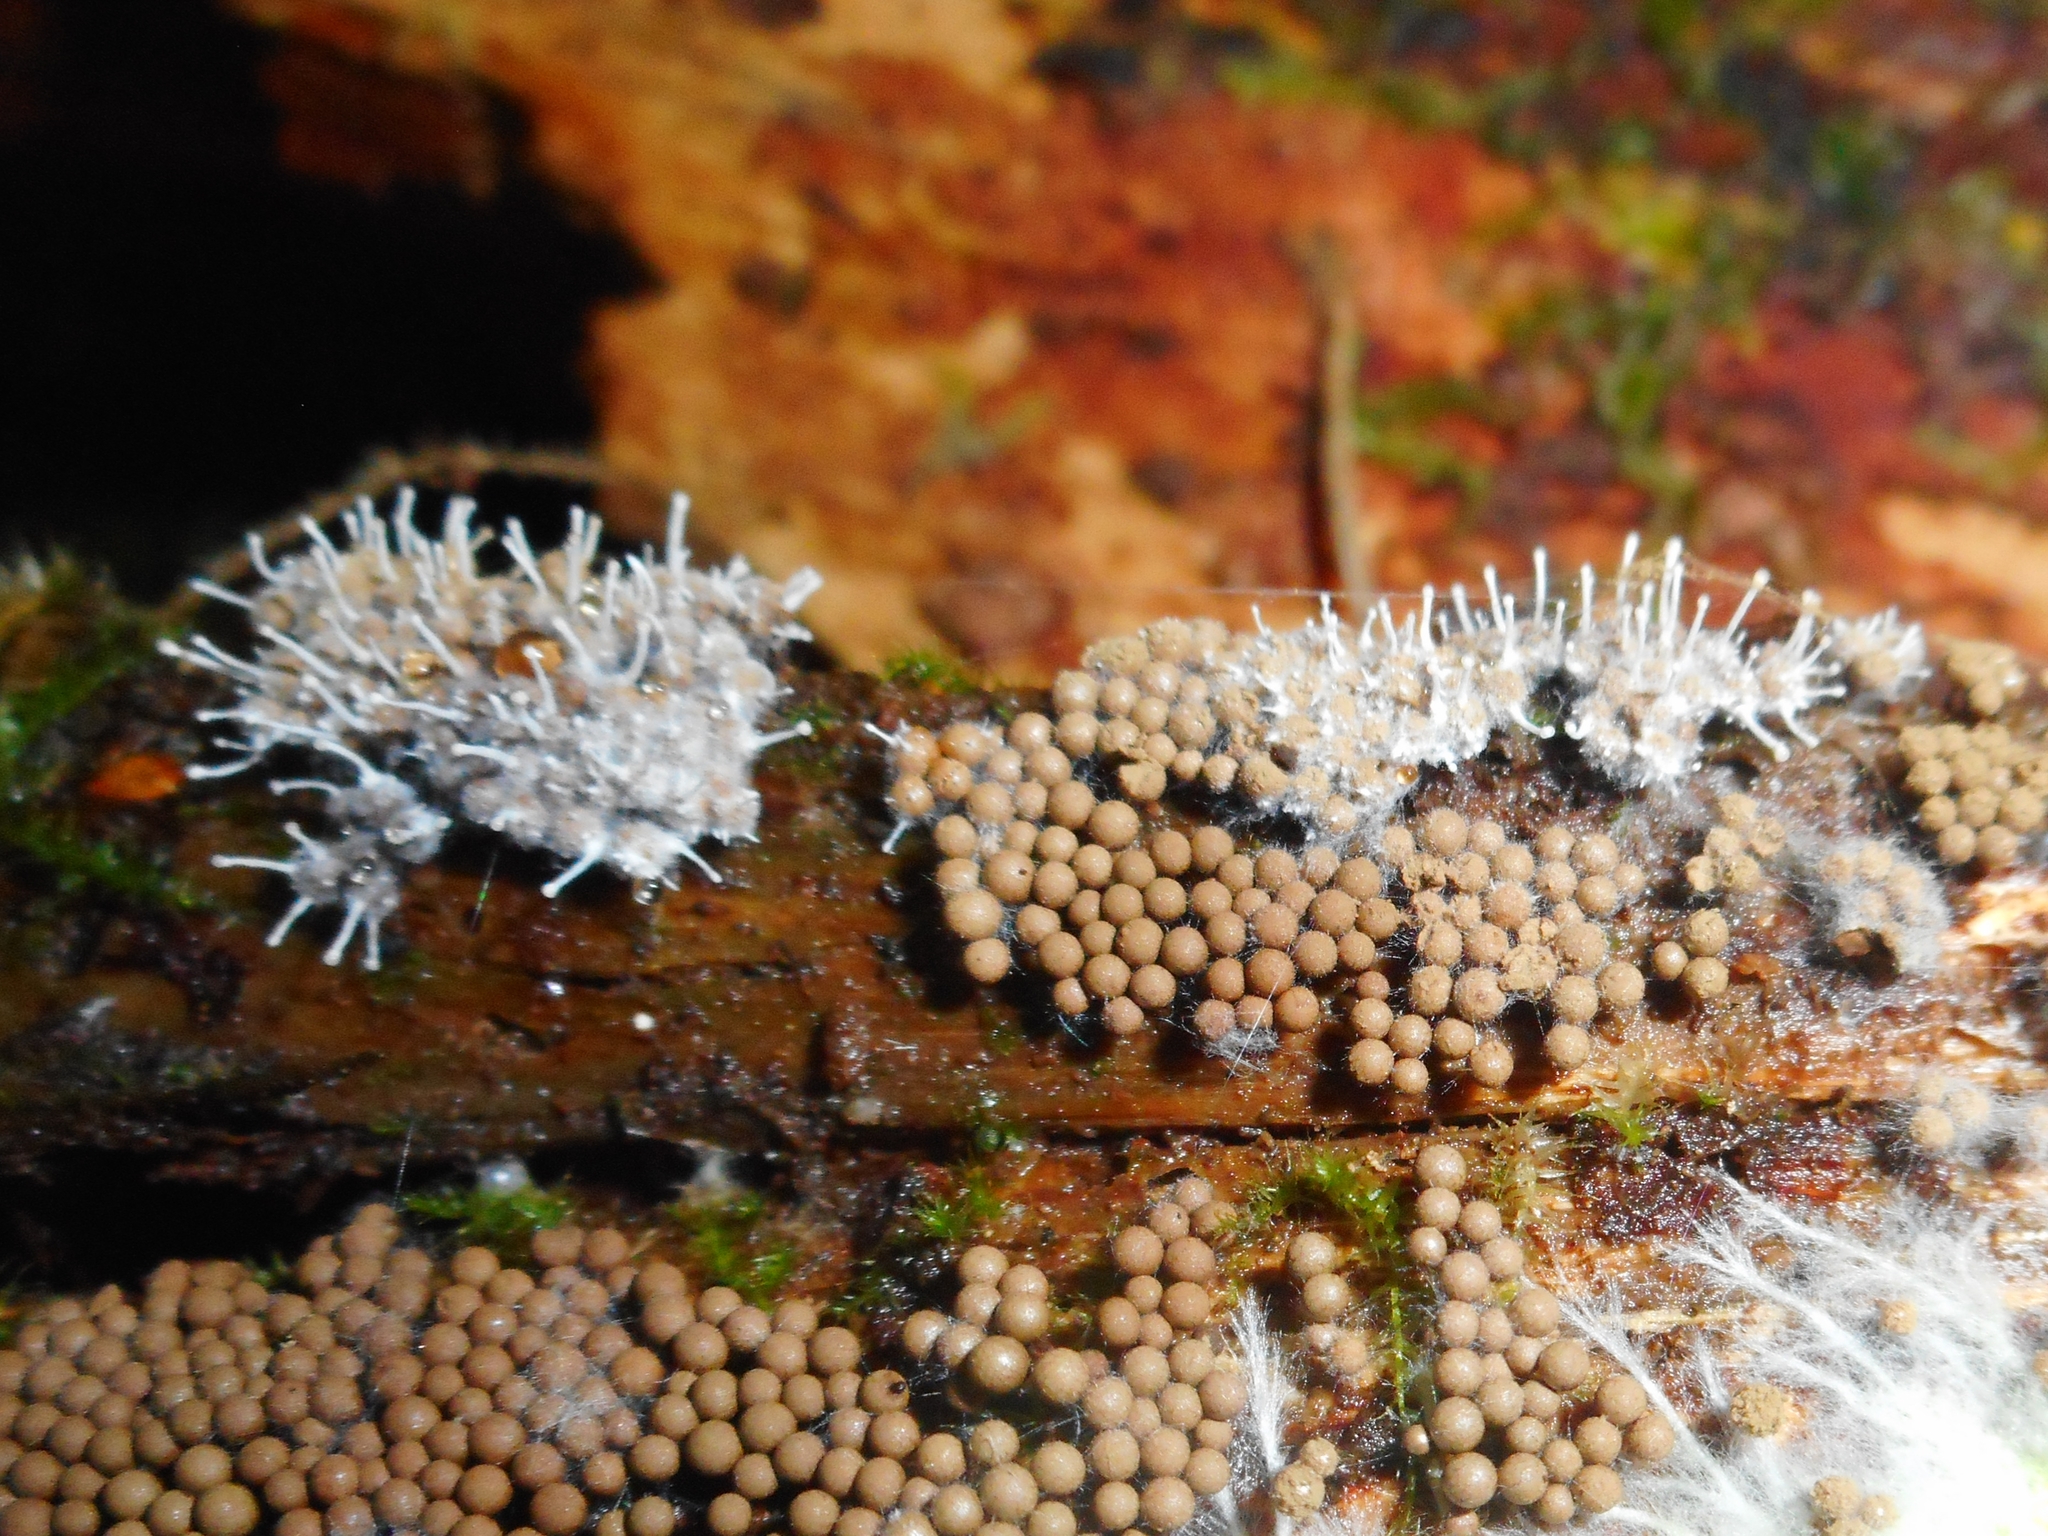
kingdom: Fungi
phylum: Ascomycota
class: Sordariomycetes
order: Hypocreales
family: Ophiocordycipitaceae
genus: Polycephalomyces
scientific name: Polycephalomyces tomentosus
